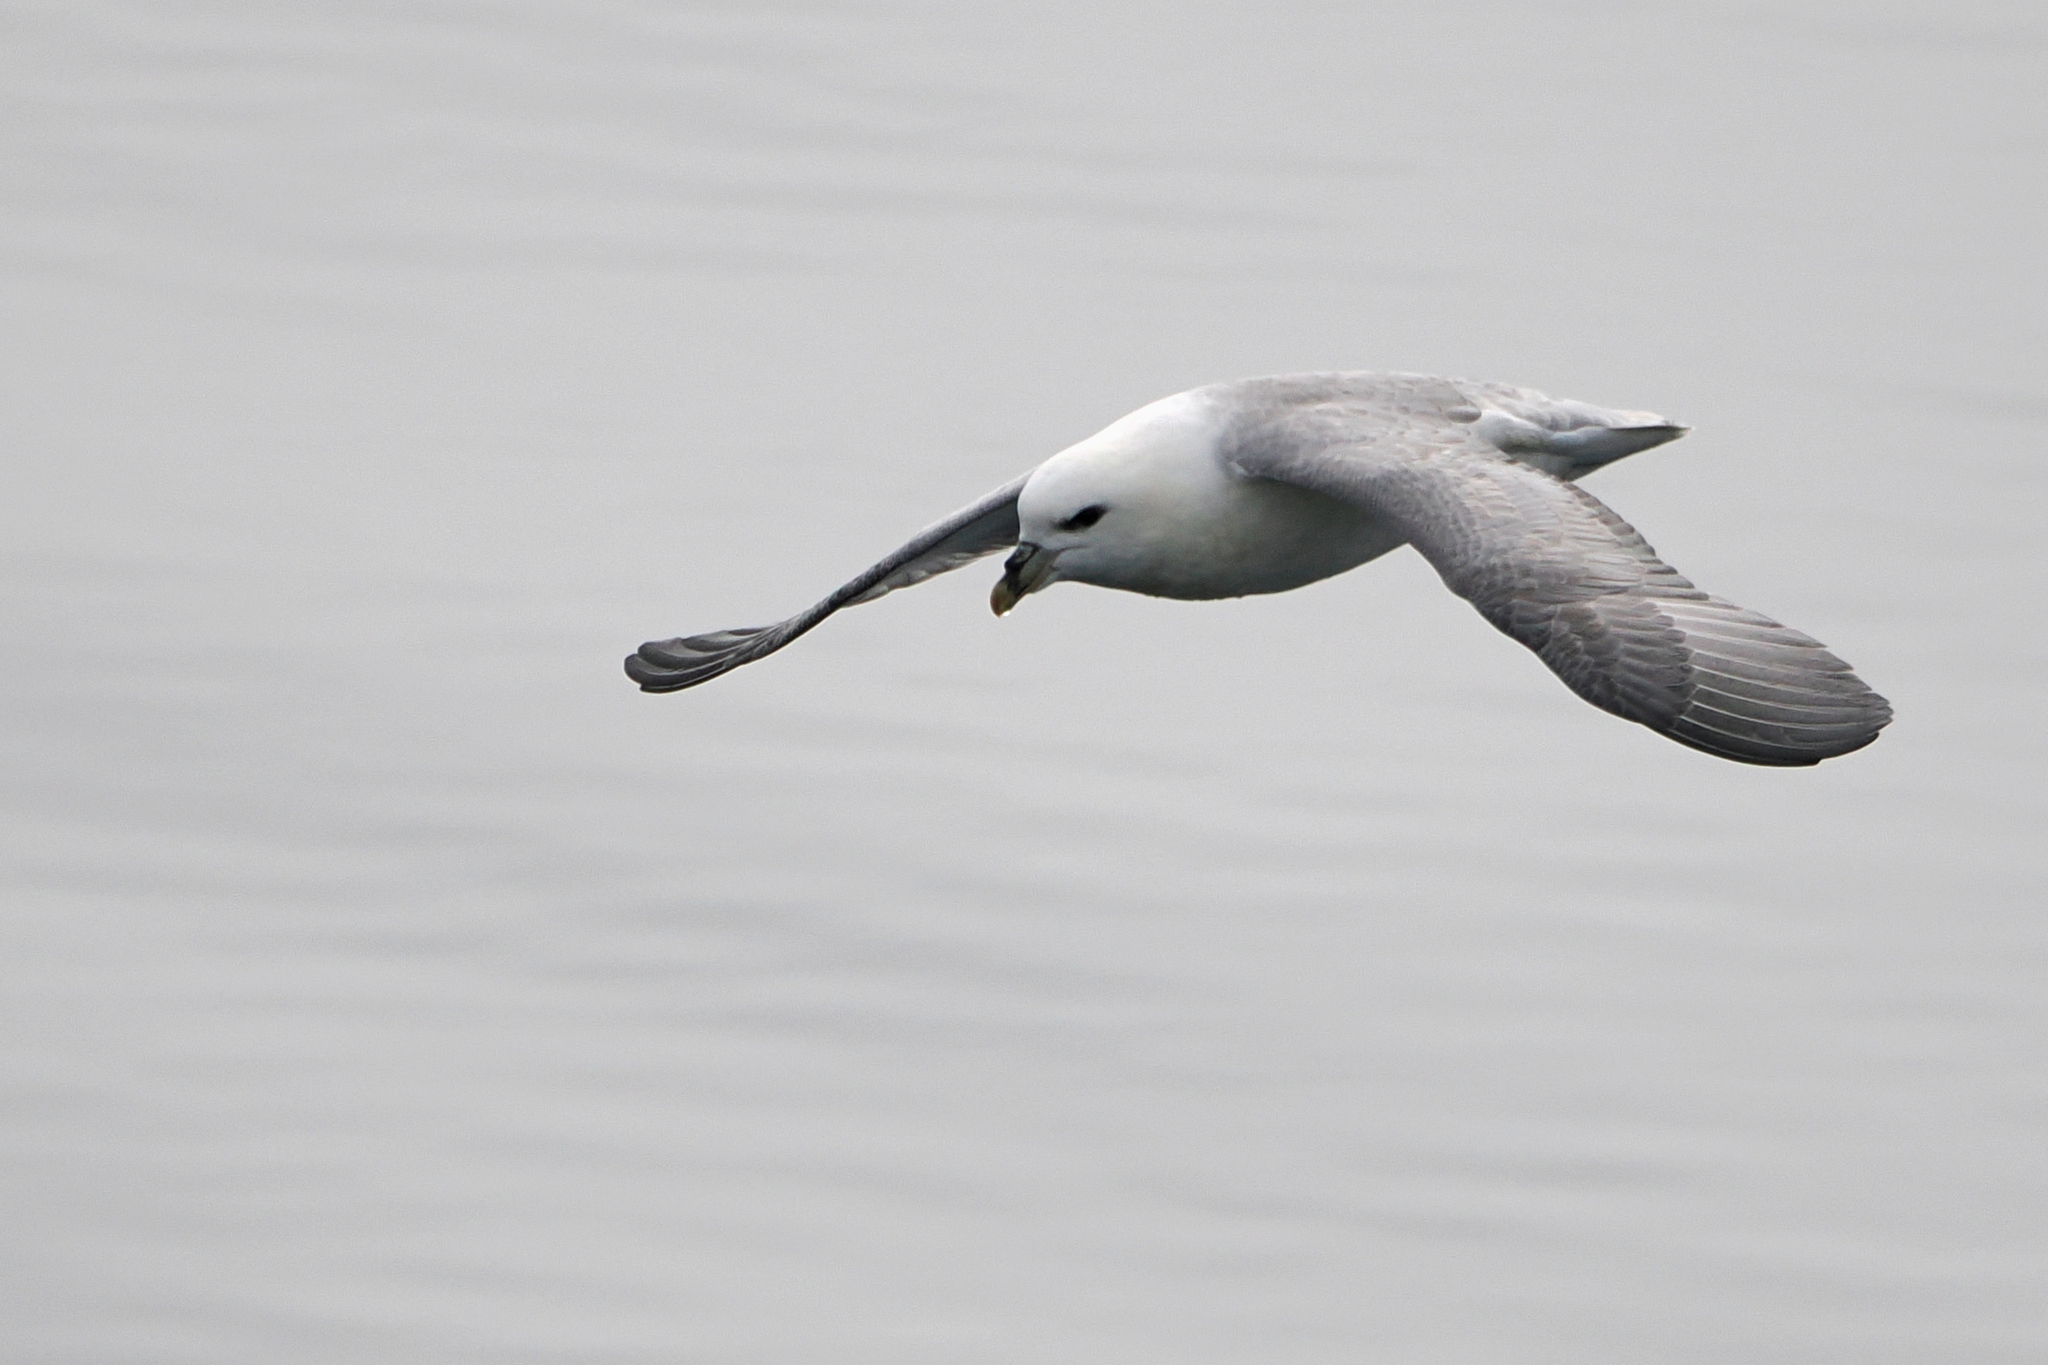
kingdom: Animalia
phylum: Chordata
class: Aves
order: Procellariiformes
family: Procellariidae
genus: Fulmarus
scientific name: Fulmarus glacialis
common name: Northern fulmar
